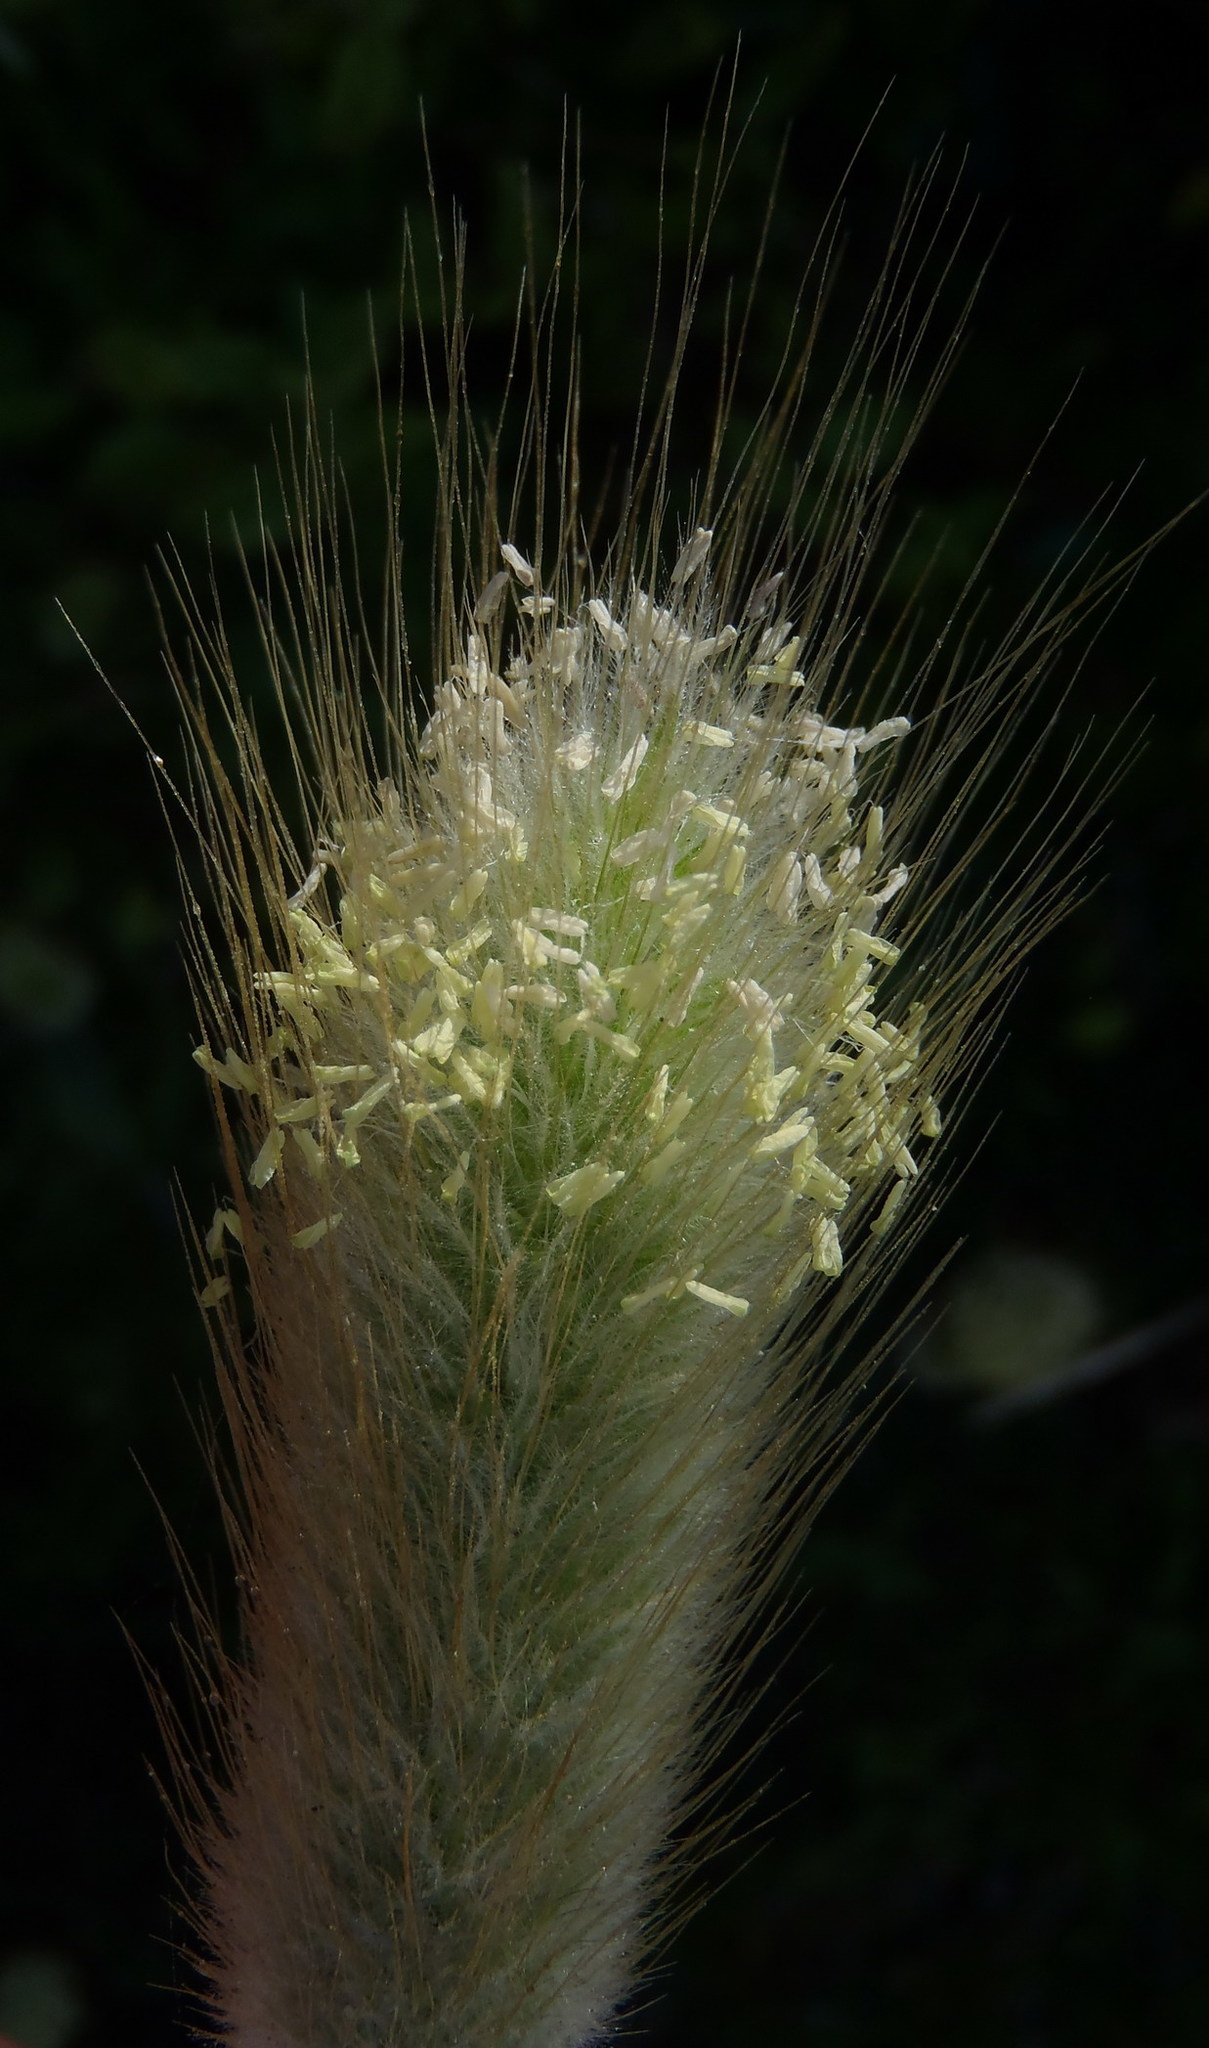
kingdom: Plantae
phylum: Tracheophyta
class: Liliopsida
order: Poales
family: Poaceae
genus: Lagurus
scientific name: Lagurus ovatus
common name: Hare's-tail
